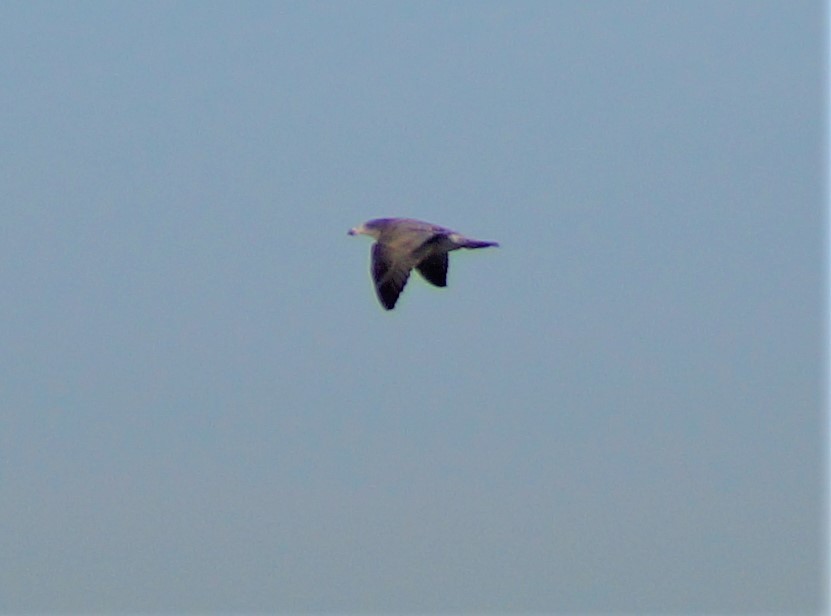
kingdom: Animalia
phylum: Chordata
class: Aves
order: Charadriiformes
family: Laridae
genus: Larus
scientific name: Larus pacificus
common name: Pacific gull
